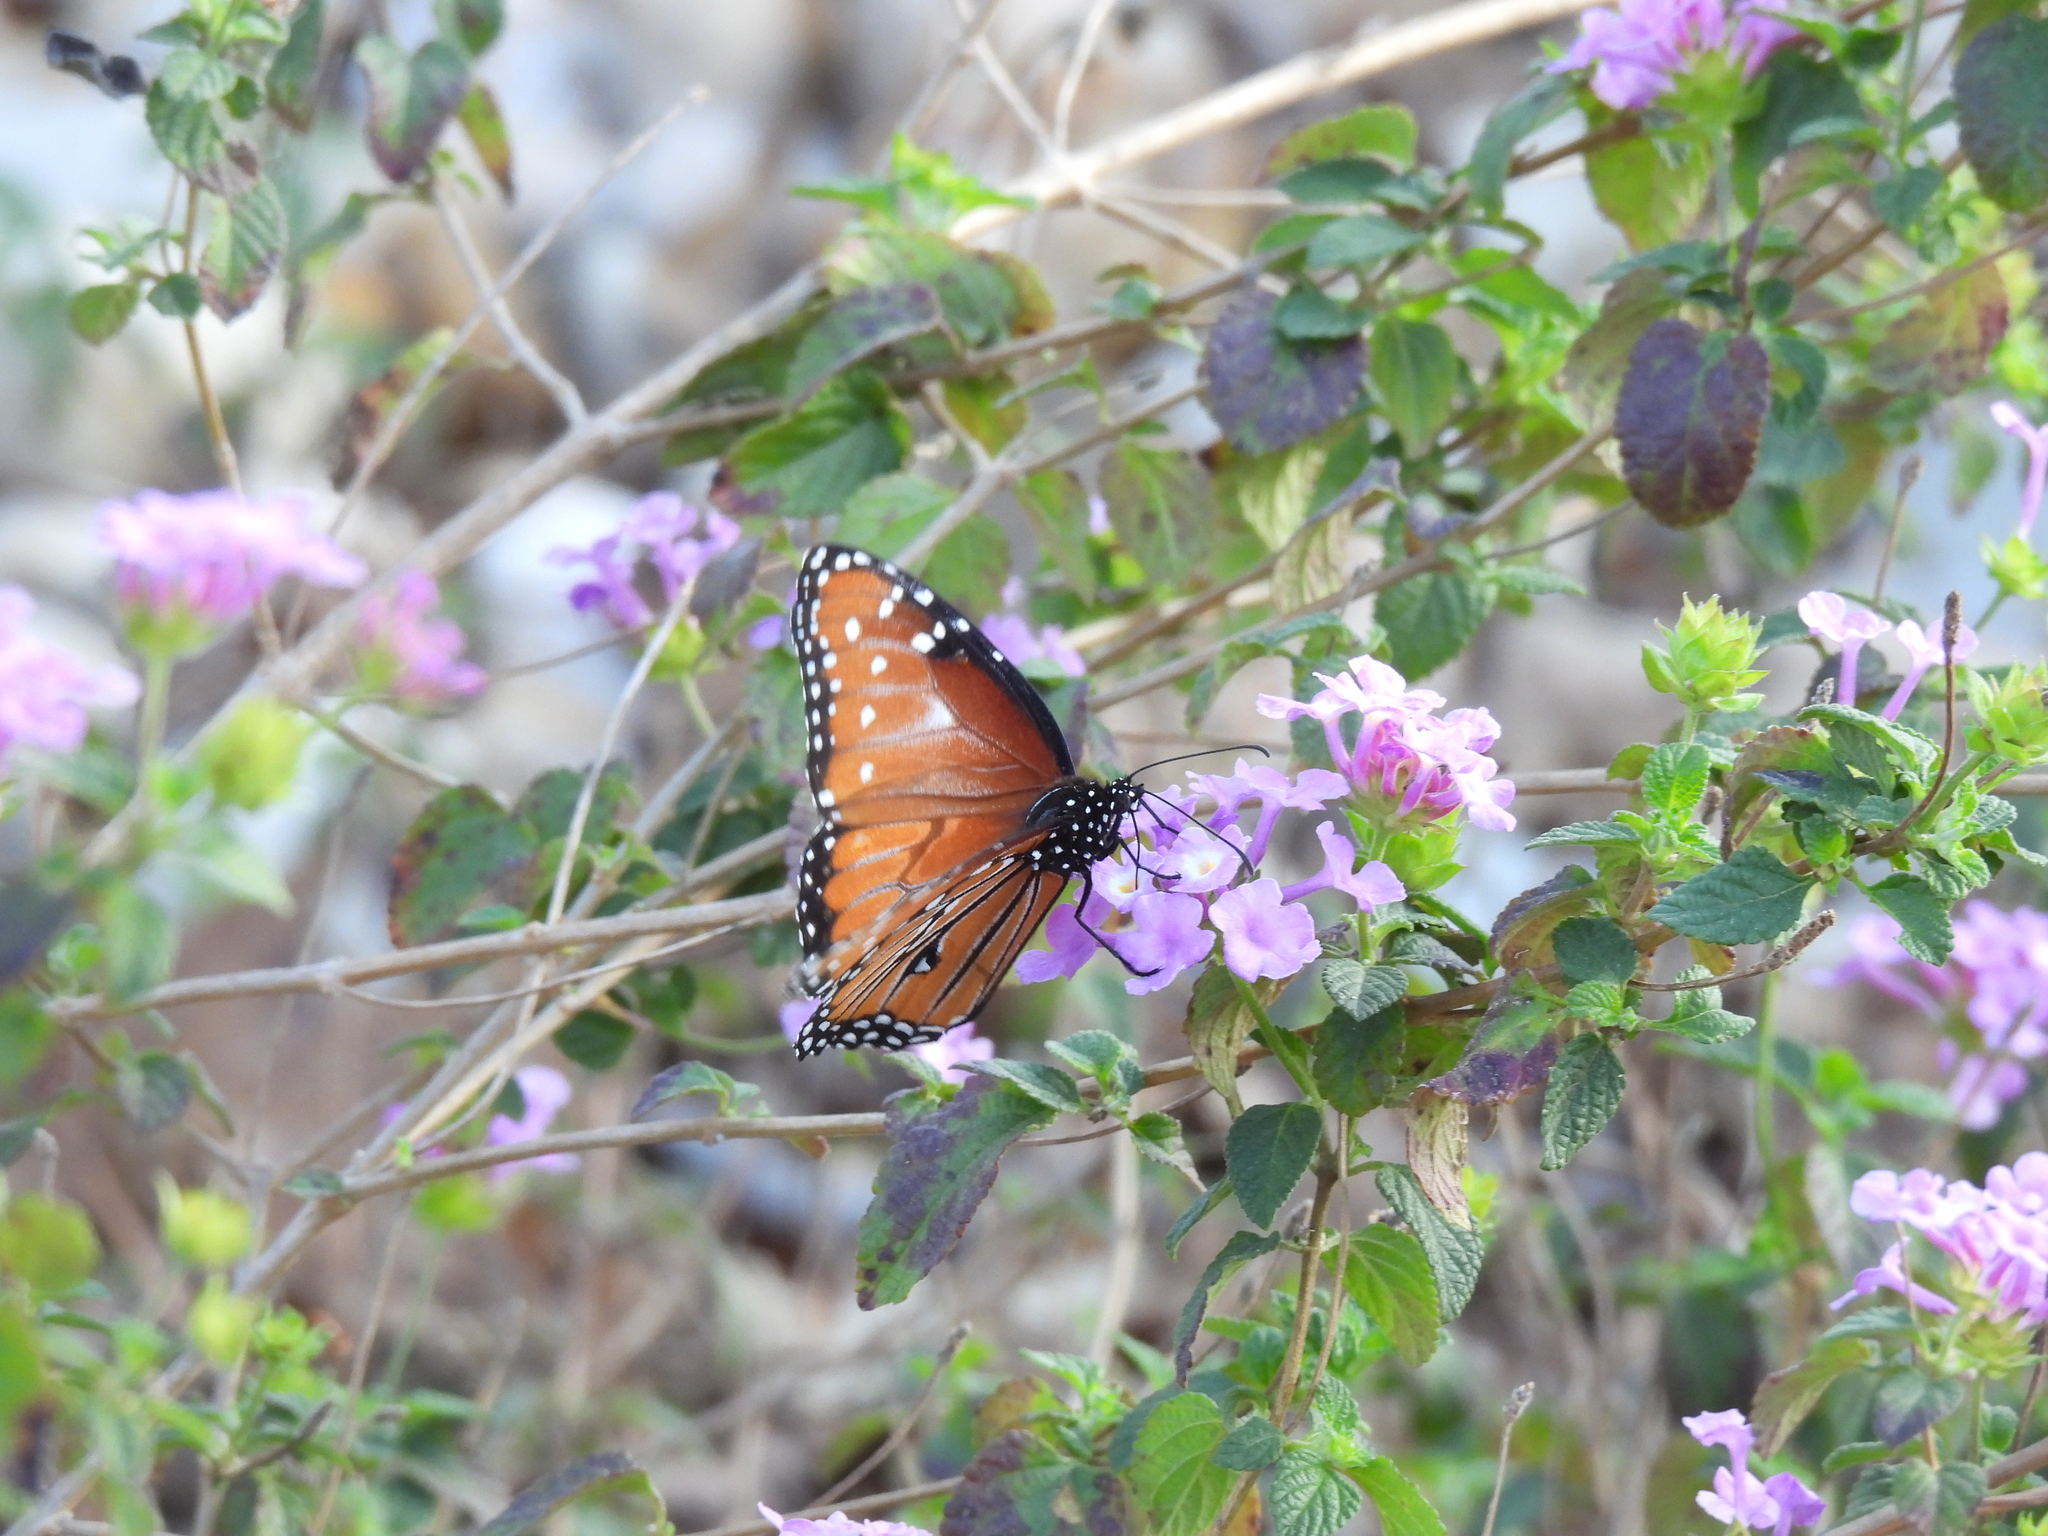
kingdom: Animalia
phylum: Arthropoda
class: Insecta
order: Lepidoptera
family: Nymphalidae
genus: Danaus
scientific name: Danaus gilippus
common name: Queen
